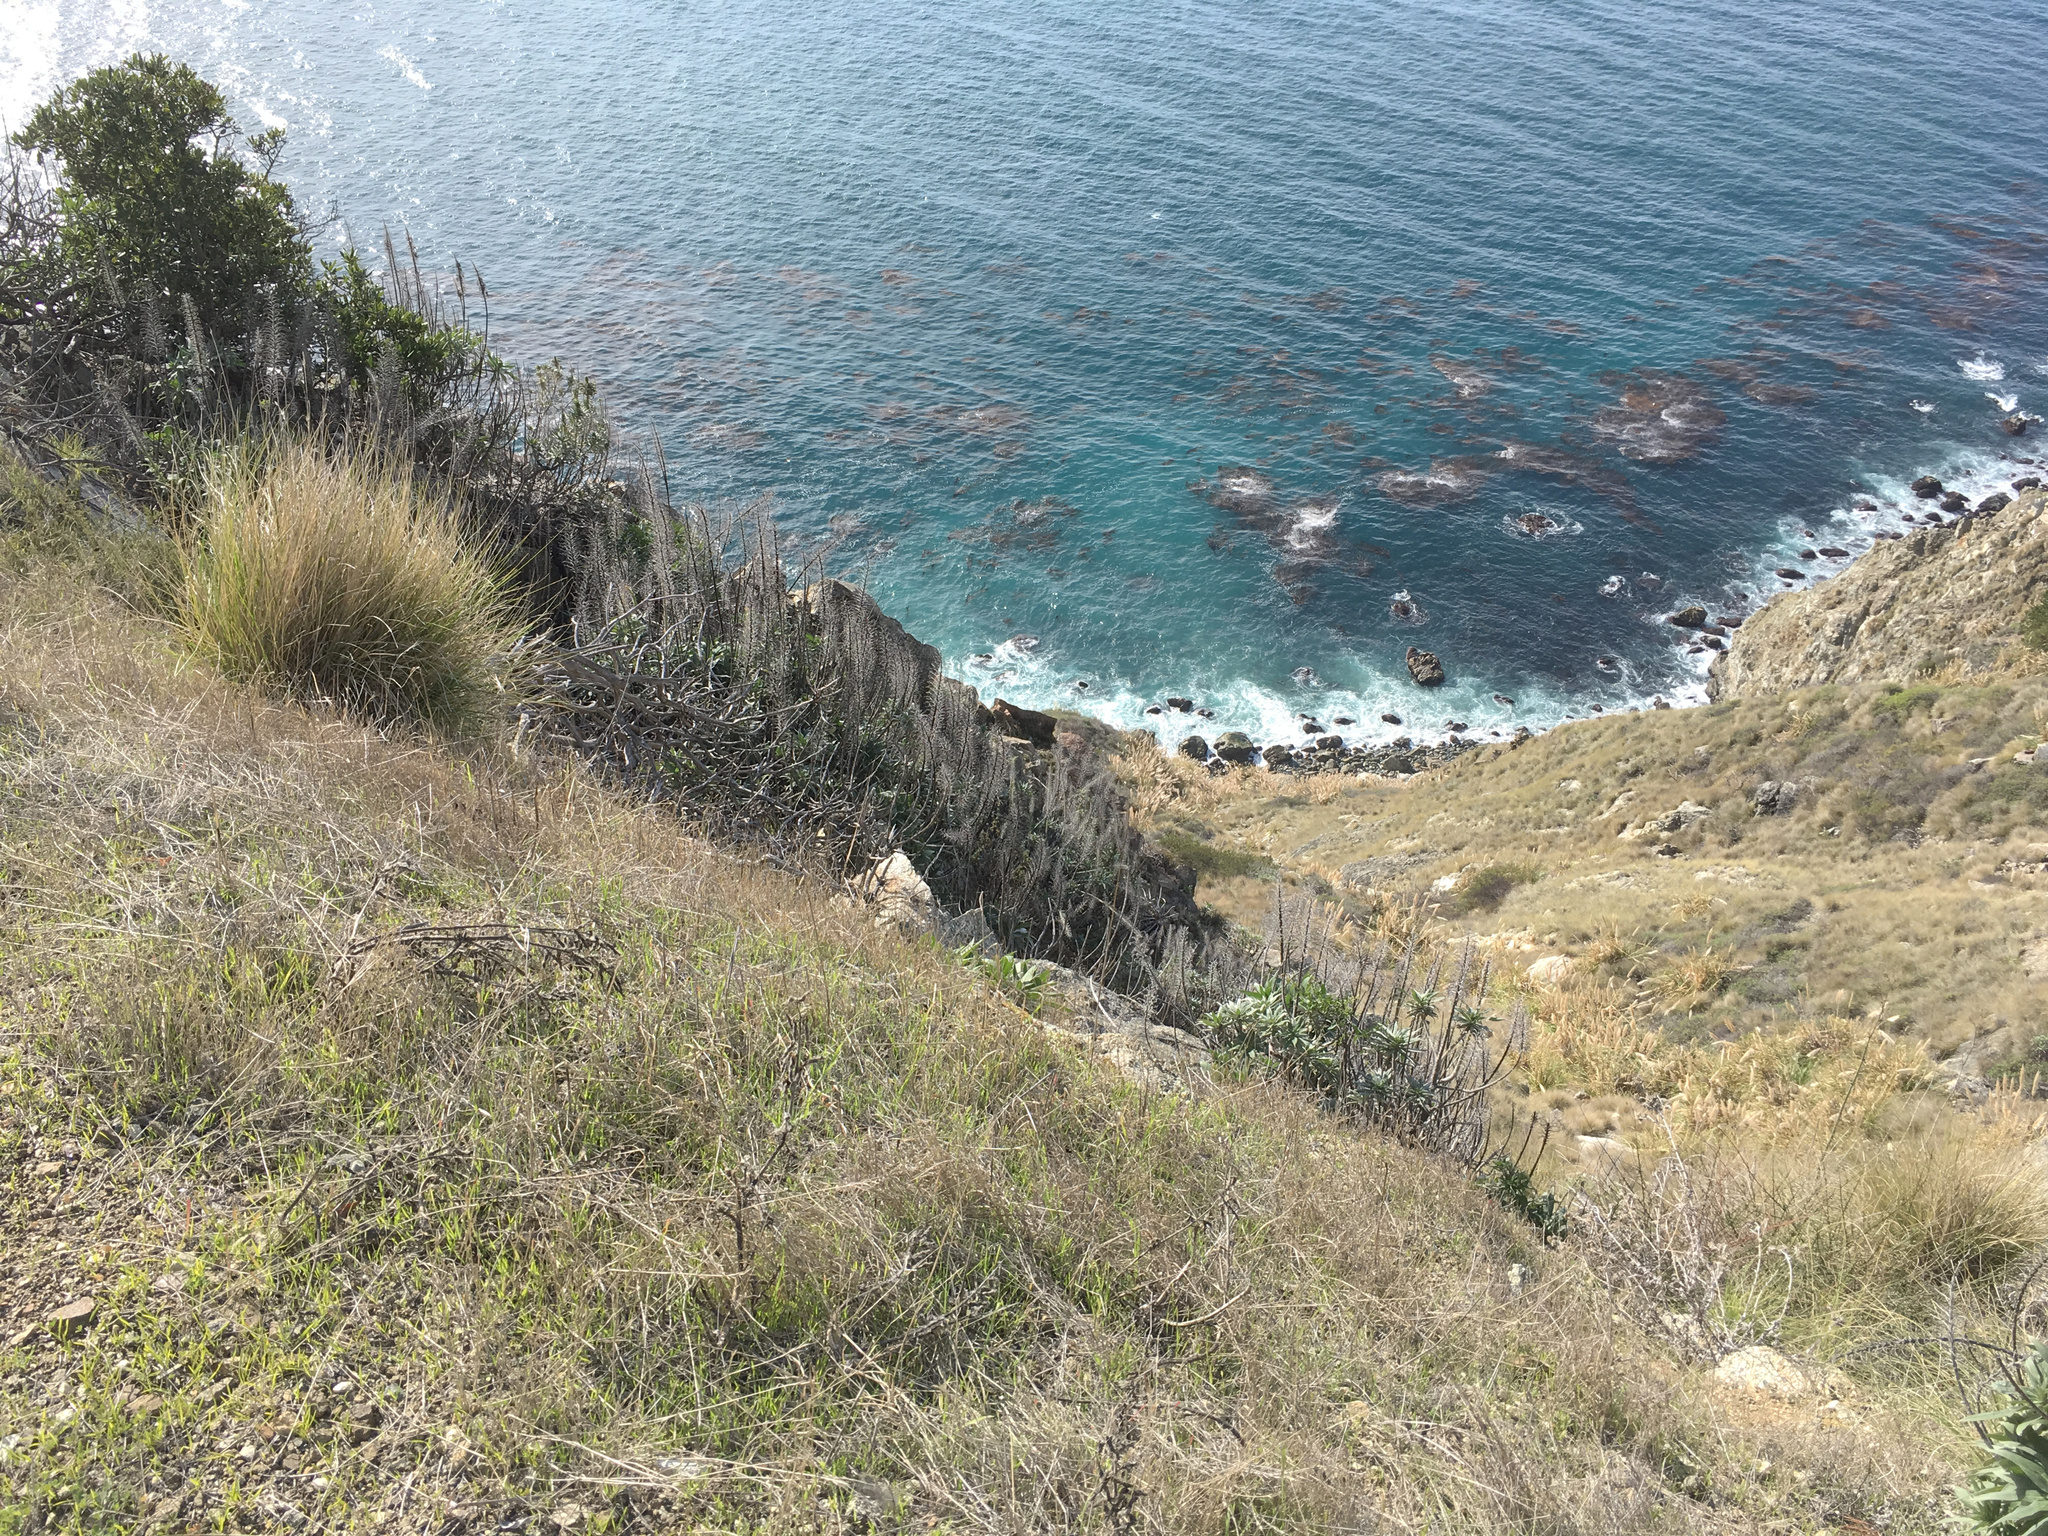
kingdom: Plantae
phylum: Tracheophyta
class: Magnoliopsida
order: Boraginales
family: Boraginaceae
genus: Echium
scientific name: Echium candicans
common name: Pride of madeira
